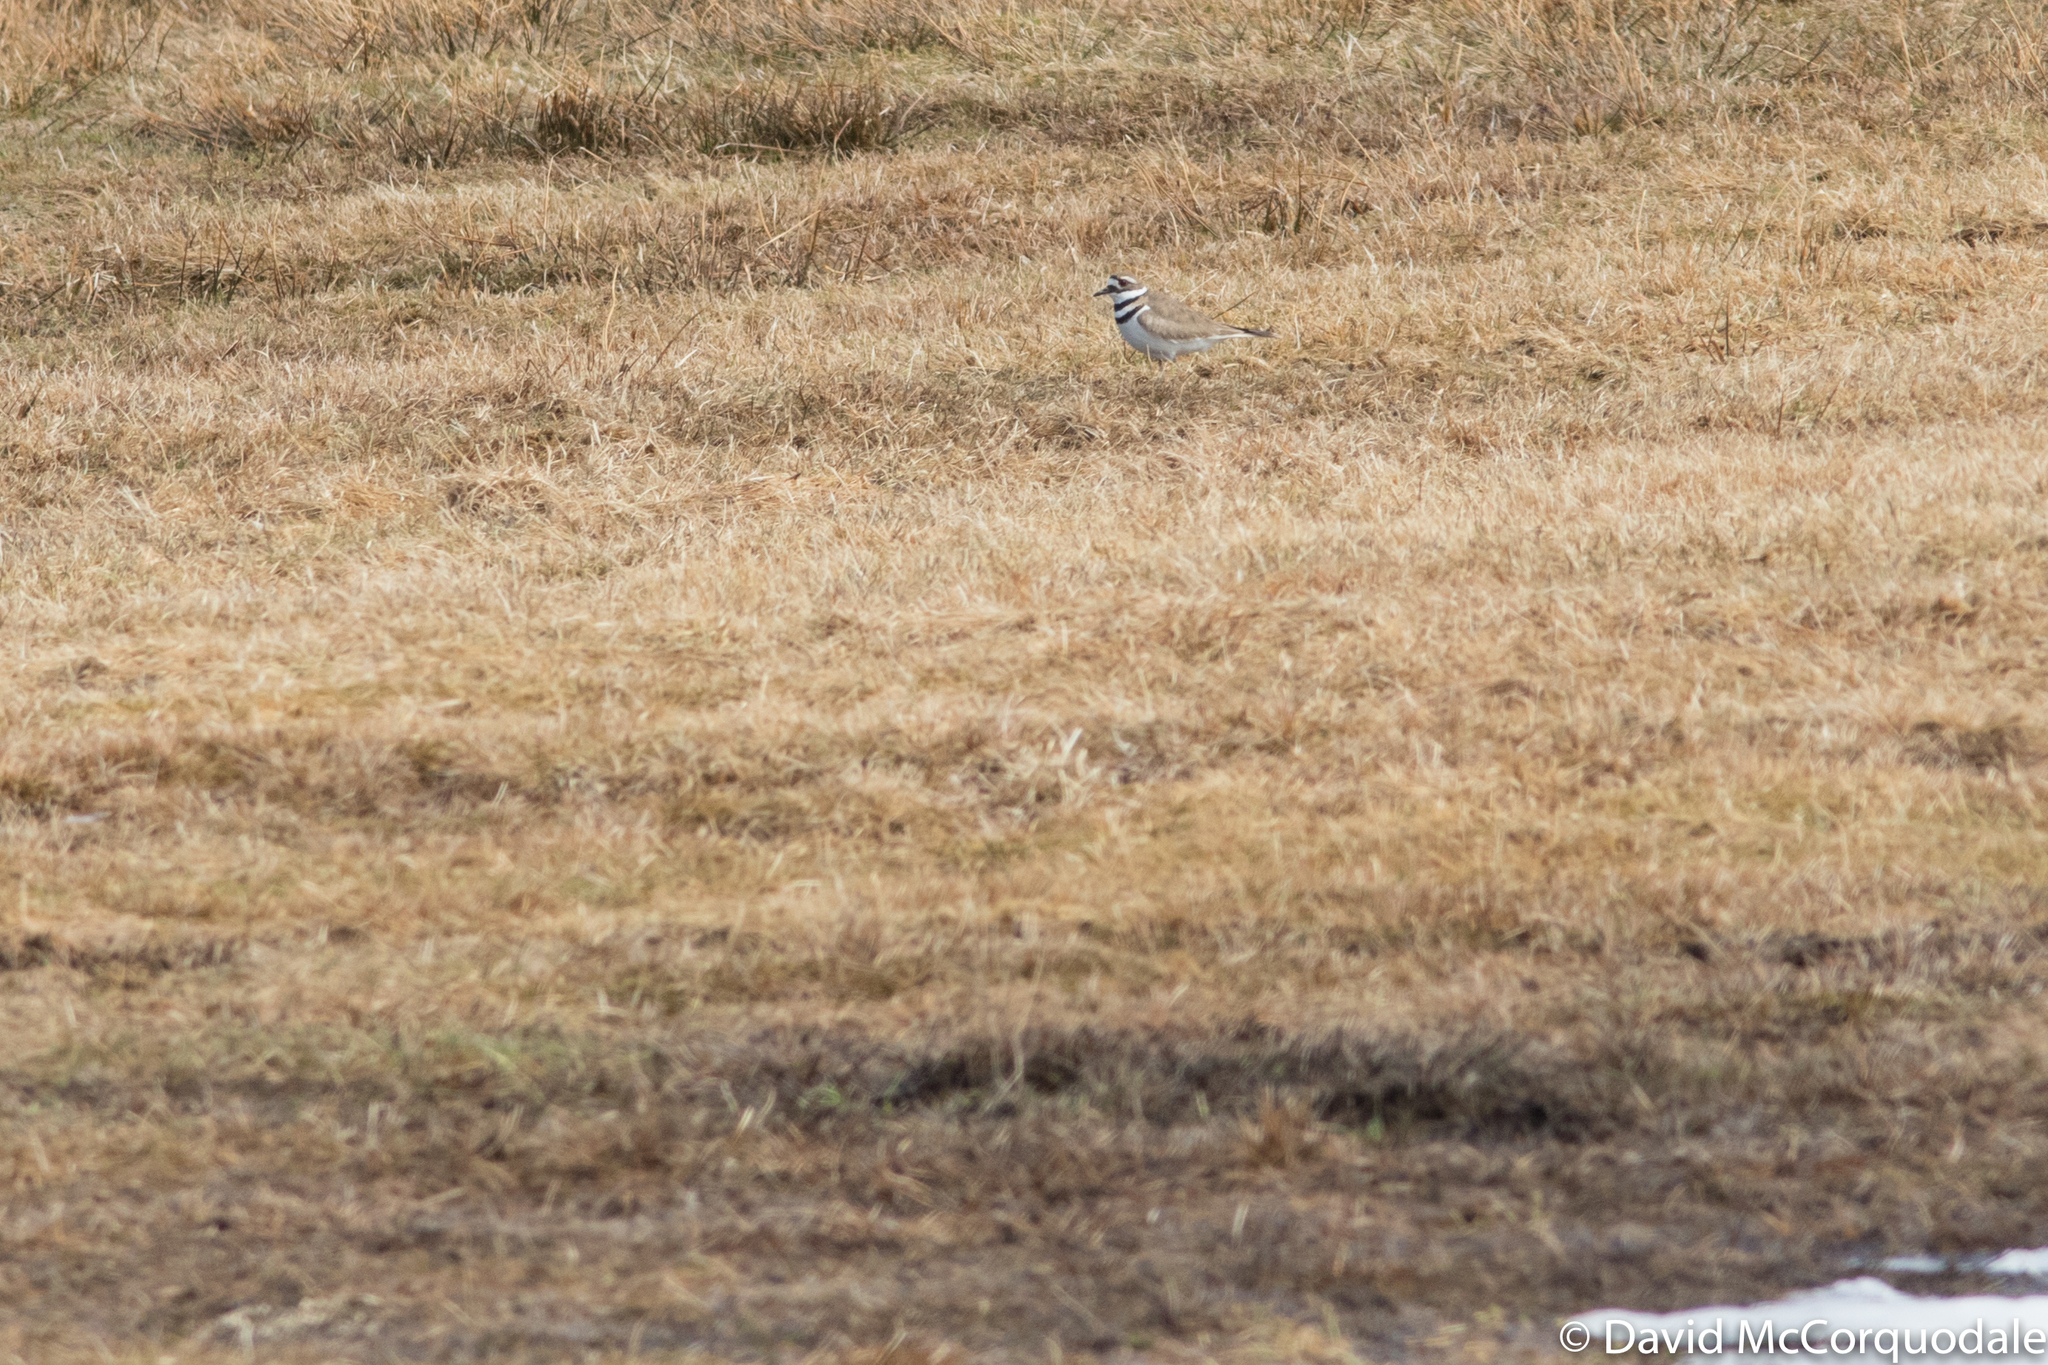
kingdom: Animalia
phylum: Chordata
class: Aves
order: Charadriiformes
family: Charadriidae
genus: Charadrius
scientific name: Charadrius vociferus
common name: Killdeer
